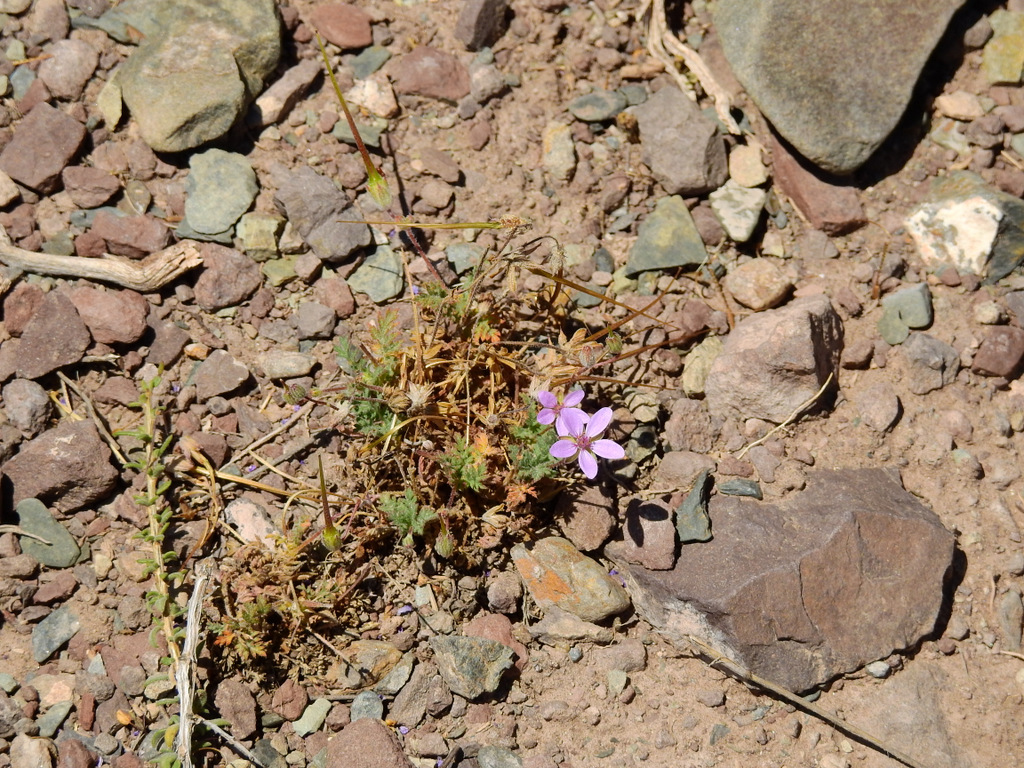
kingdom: Plantae
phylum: Tracheophyta
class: Magnoliopsida
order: Geraniales
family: Geraniaceae
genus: Erodium
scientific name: Erodium cicutarium
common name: Common stork's-bill
